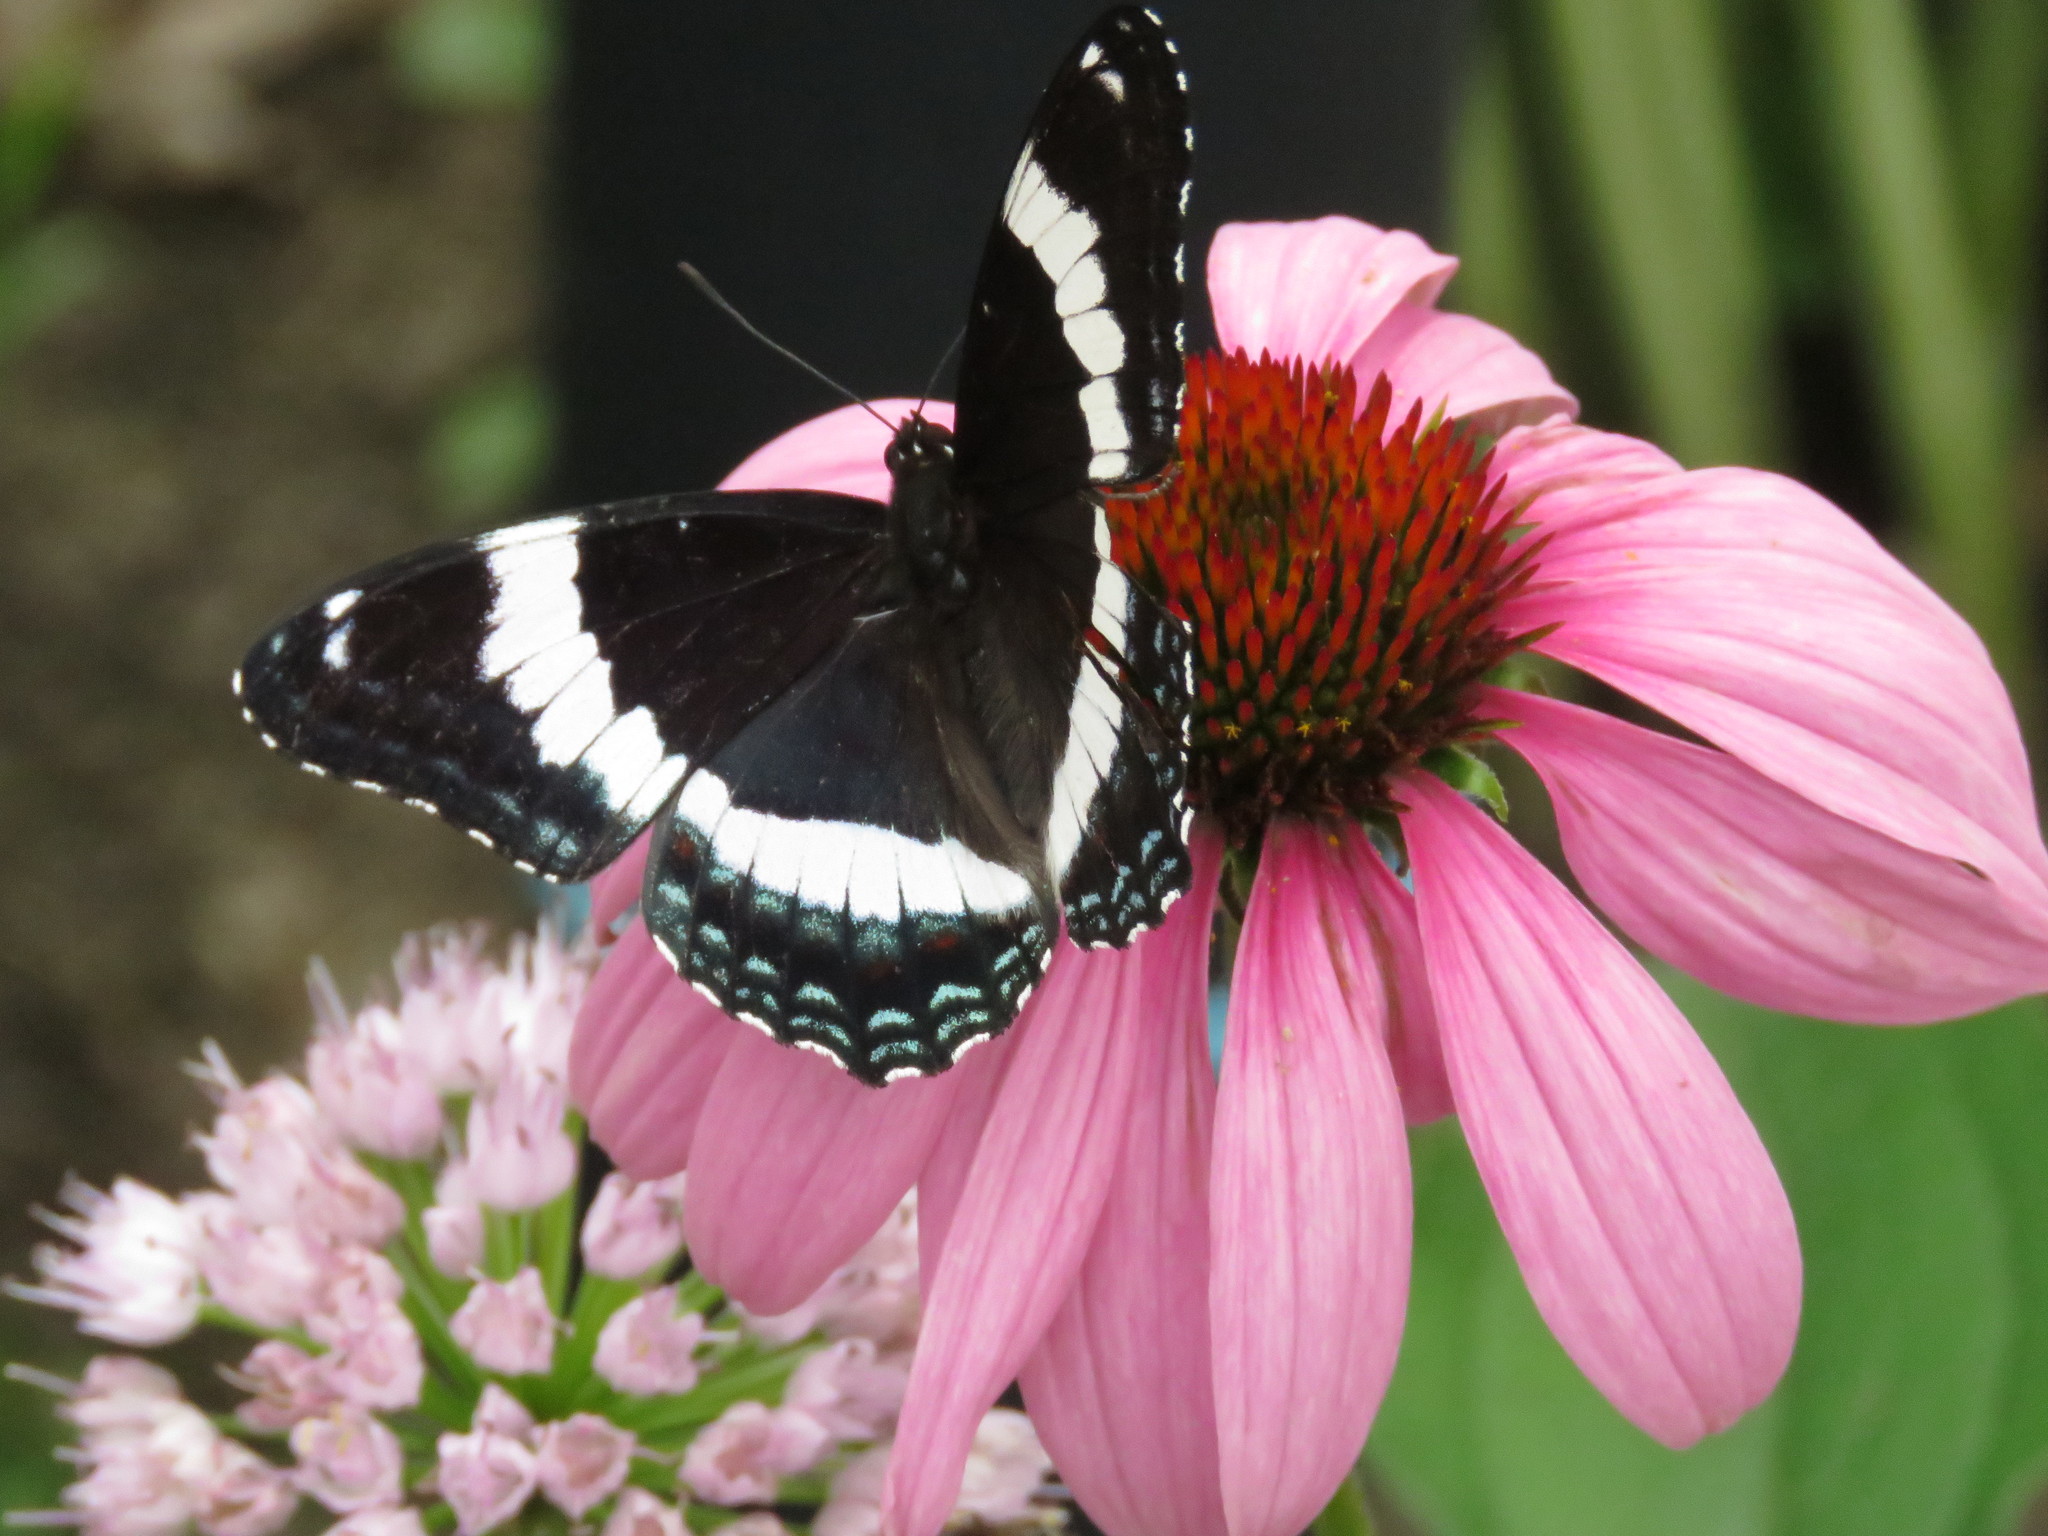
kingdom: Animalia
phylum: Arthropoda
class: Insecta
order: Lepidoptera
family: Nymphalidae
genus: Limenitis
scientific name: Limenitis arthemis
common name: Red-spotted admiral
